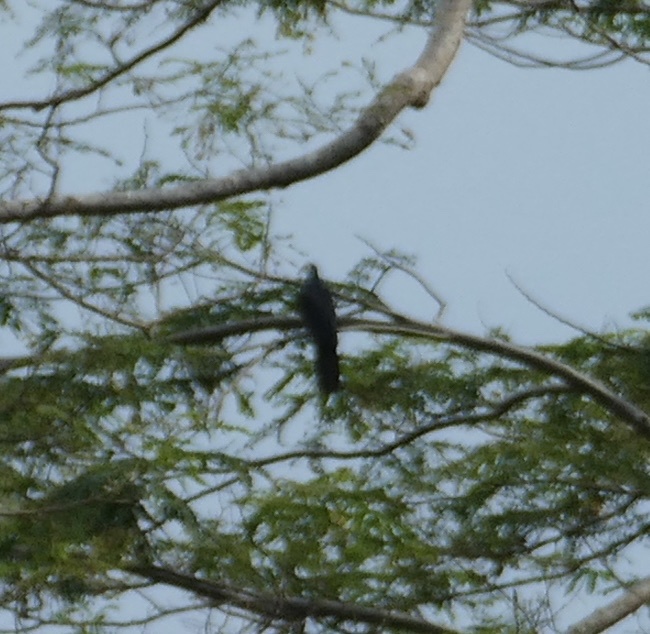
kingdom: Animalia
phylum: Chordata
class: Aves
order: Columbiformes
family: Columbidae
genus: Turacoena
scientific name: Turacoena manadensis
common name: White-faced cuckoo-dove
